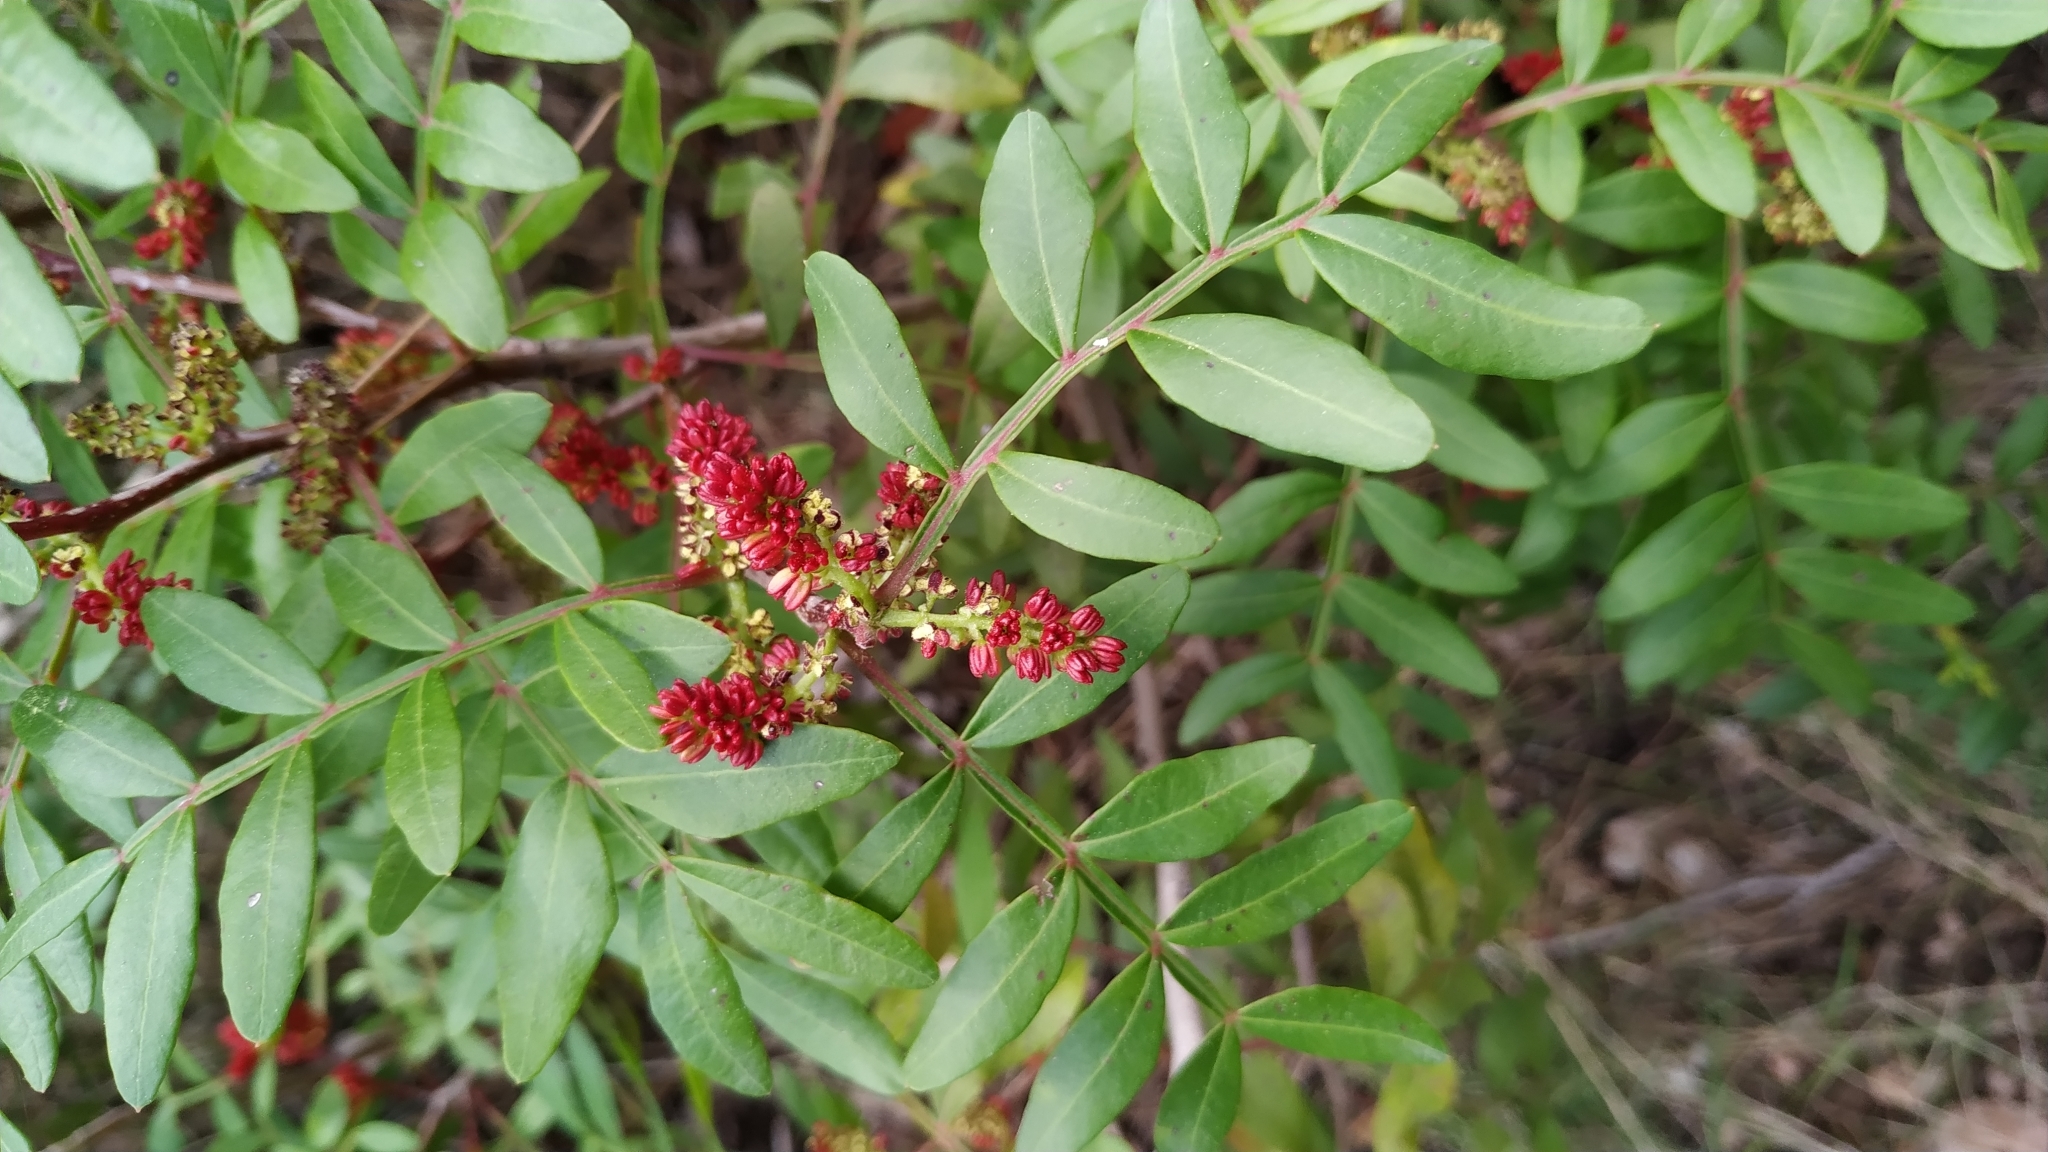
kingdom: Plantae
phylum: Tracheophyta
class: Magnoliopsida
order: Sapindales
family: Anacardiaceae
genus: Pistacia
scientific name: Pistacia lentiscus
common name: Lentisk
